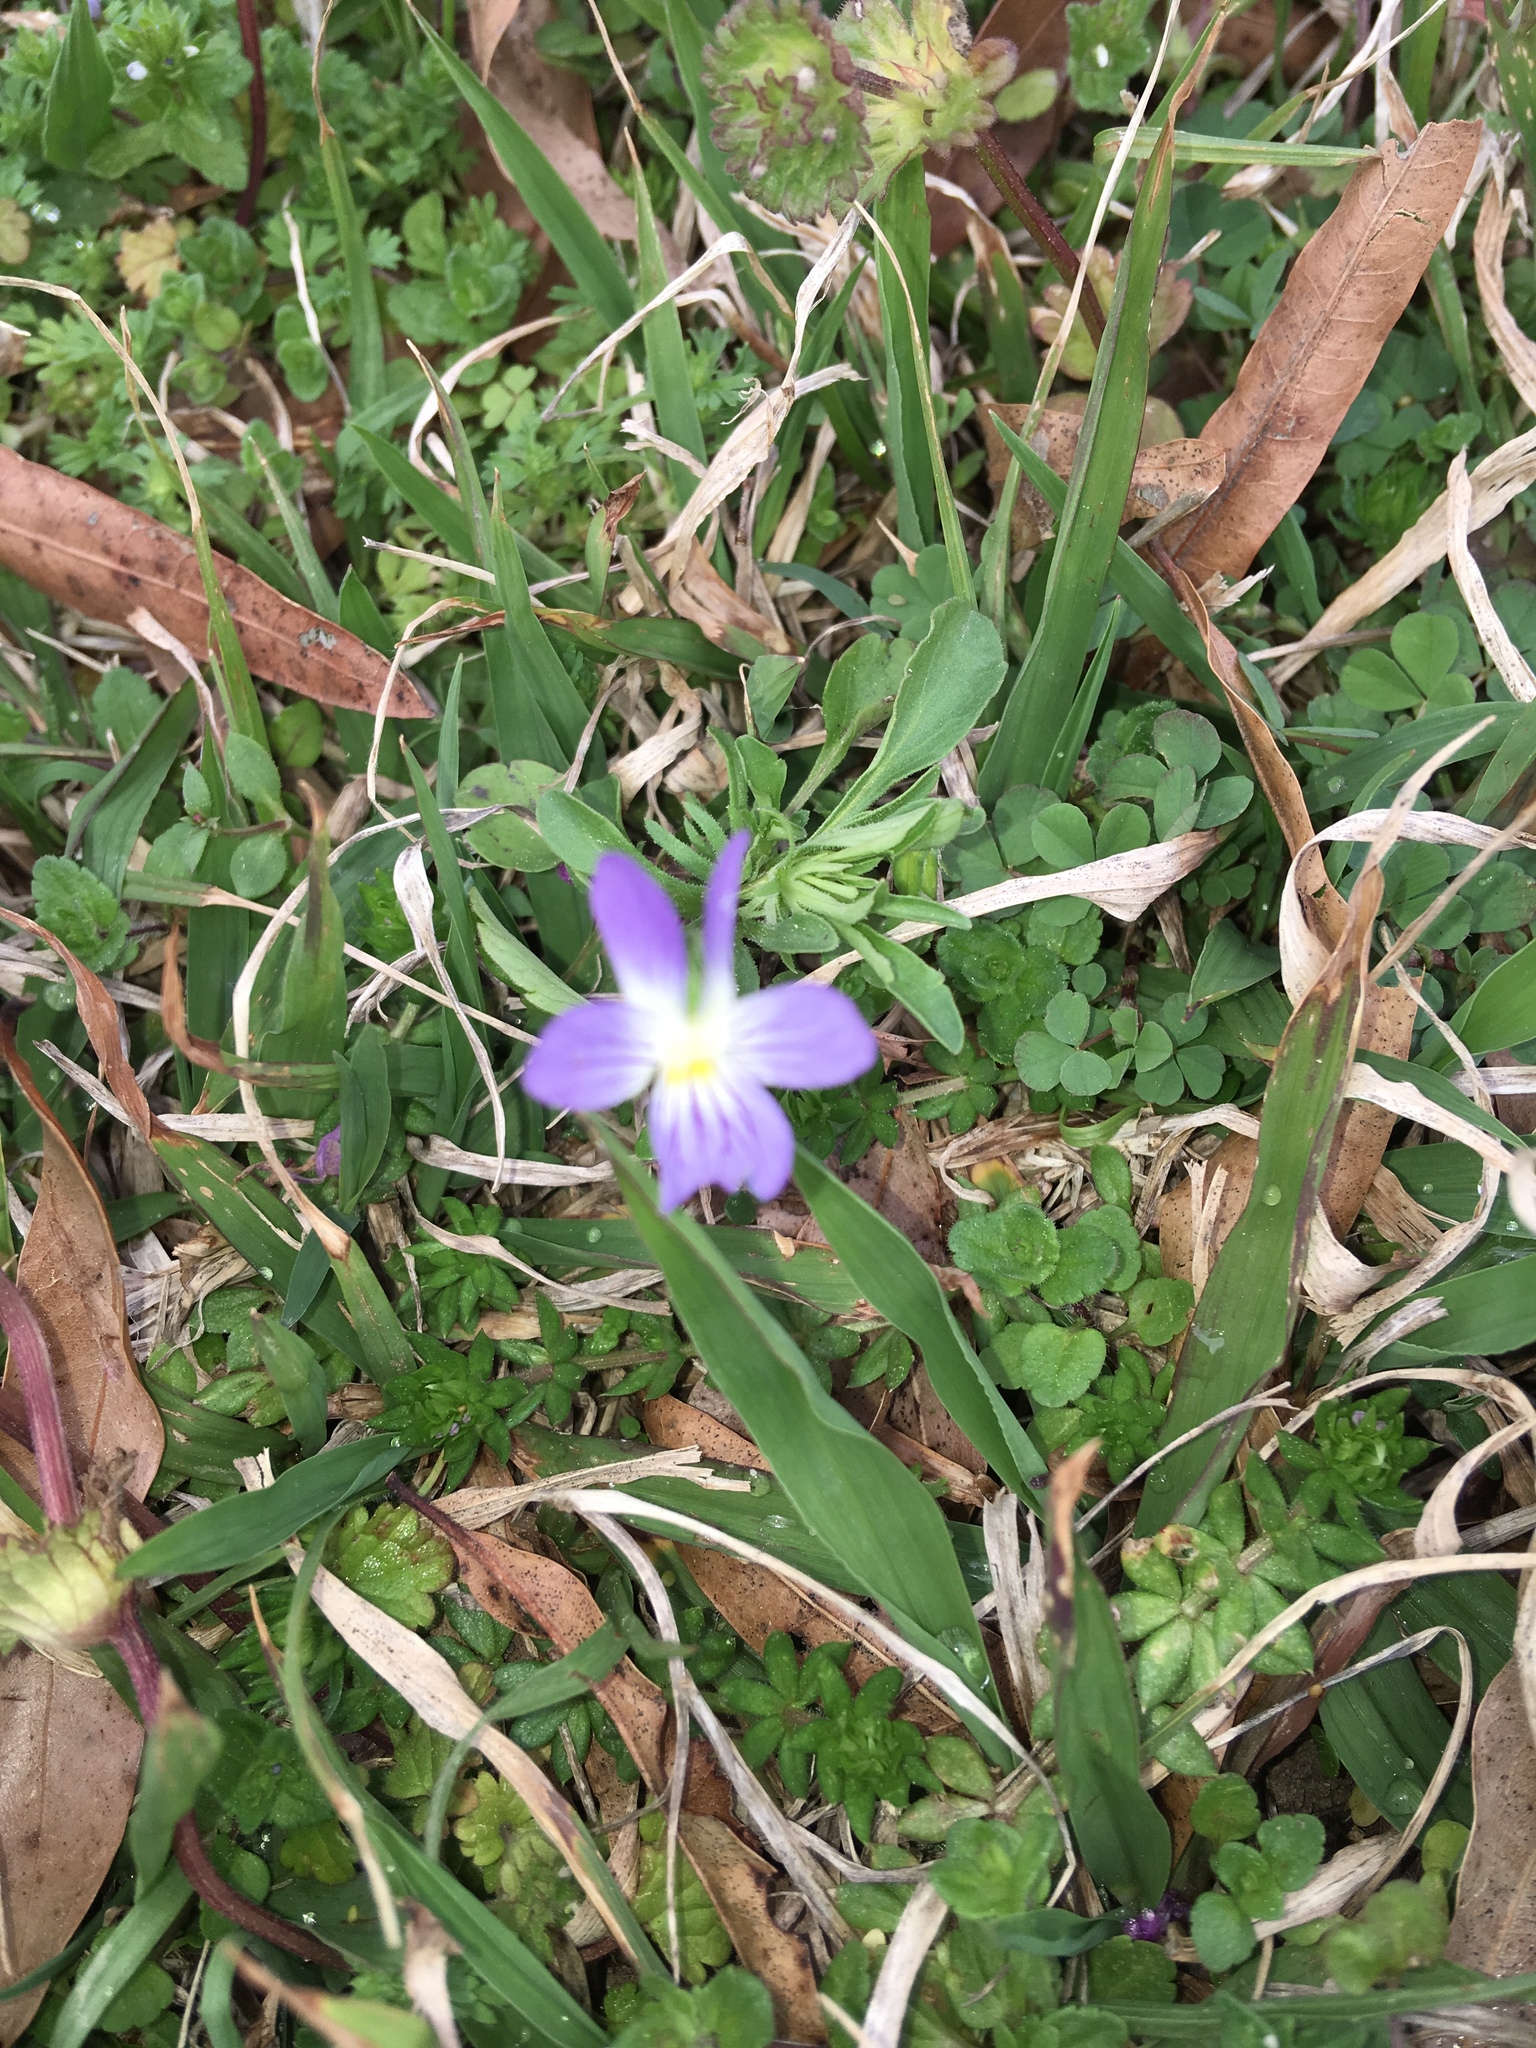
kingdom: Plantae
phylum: Tracheophyta
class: Magnoliopsida
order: Malpighiales
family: Violaceae
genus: Viola
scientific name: Viola rafinesquei
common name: American field pansy
